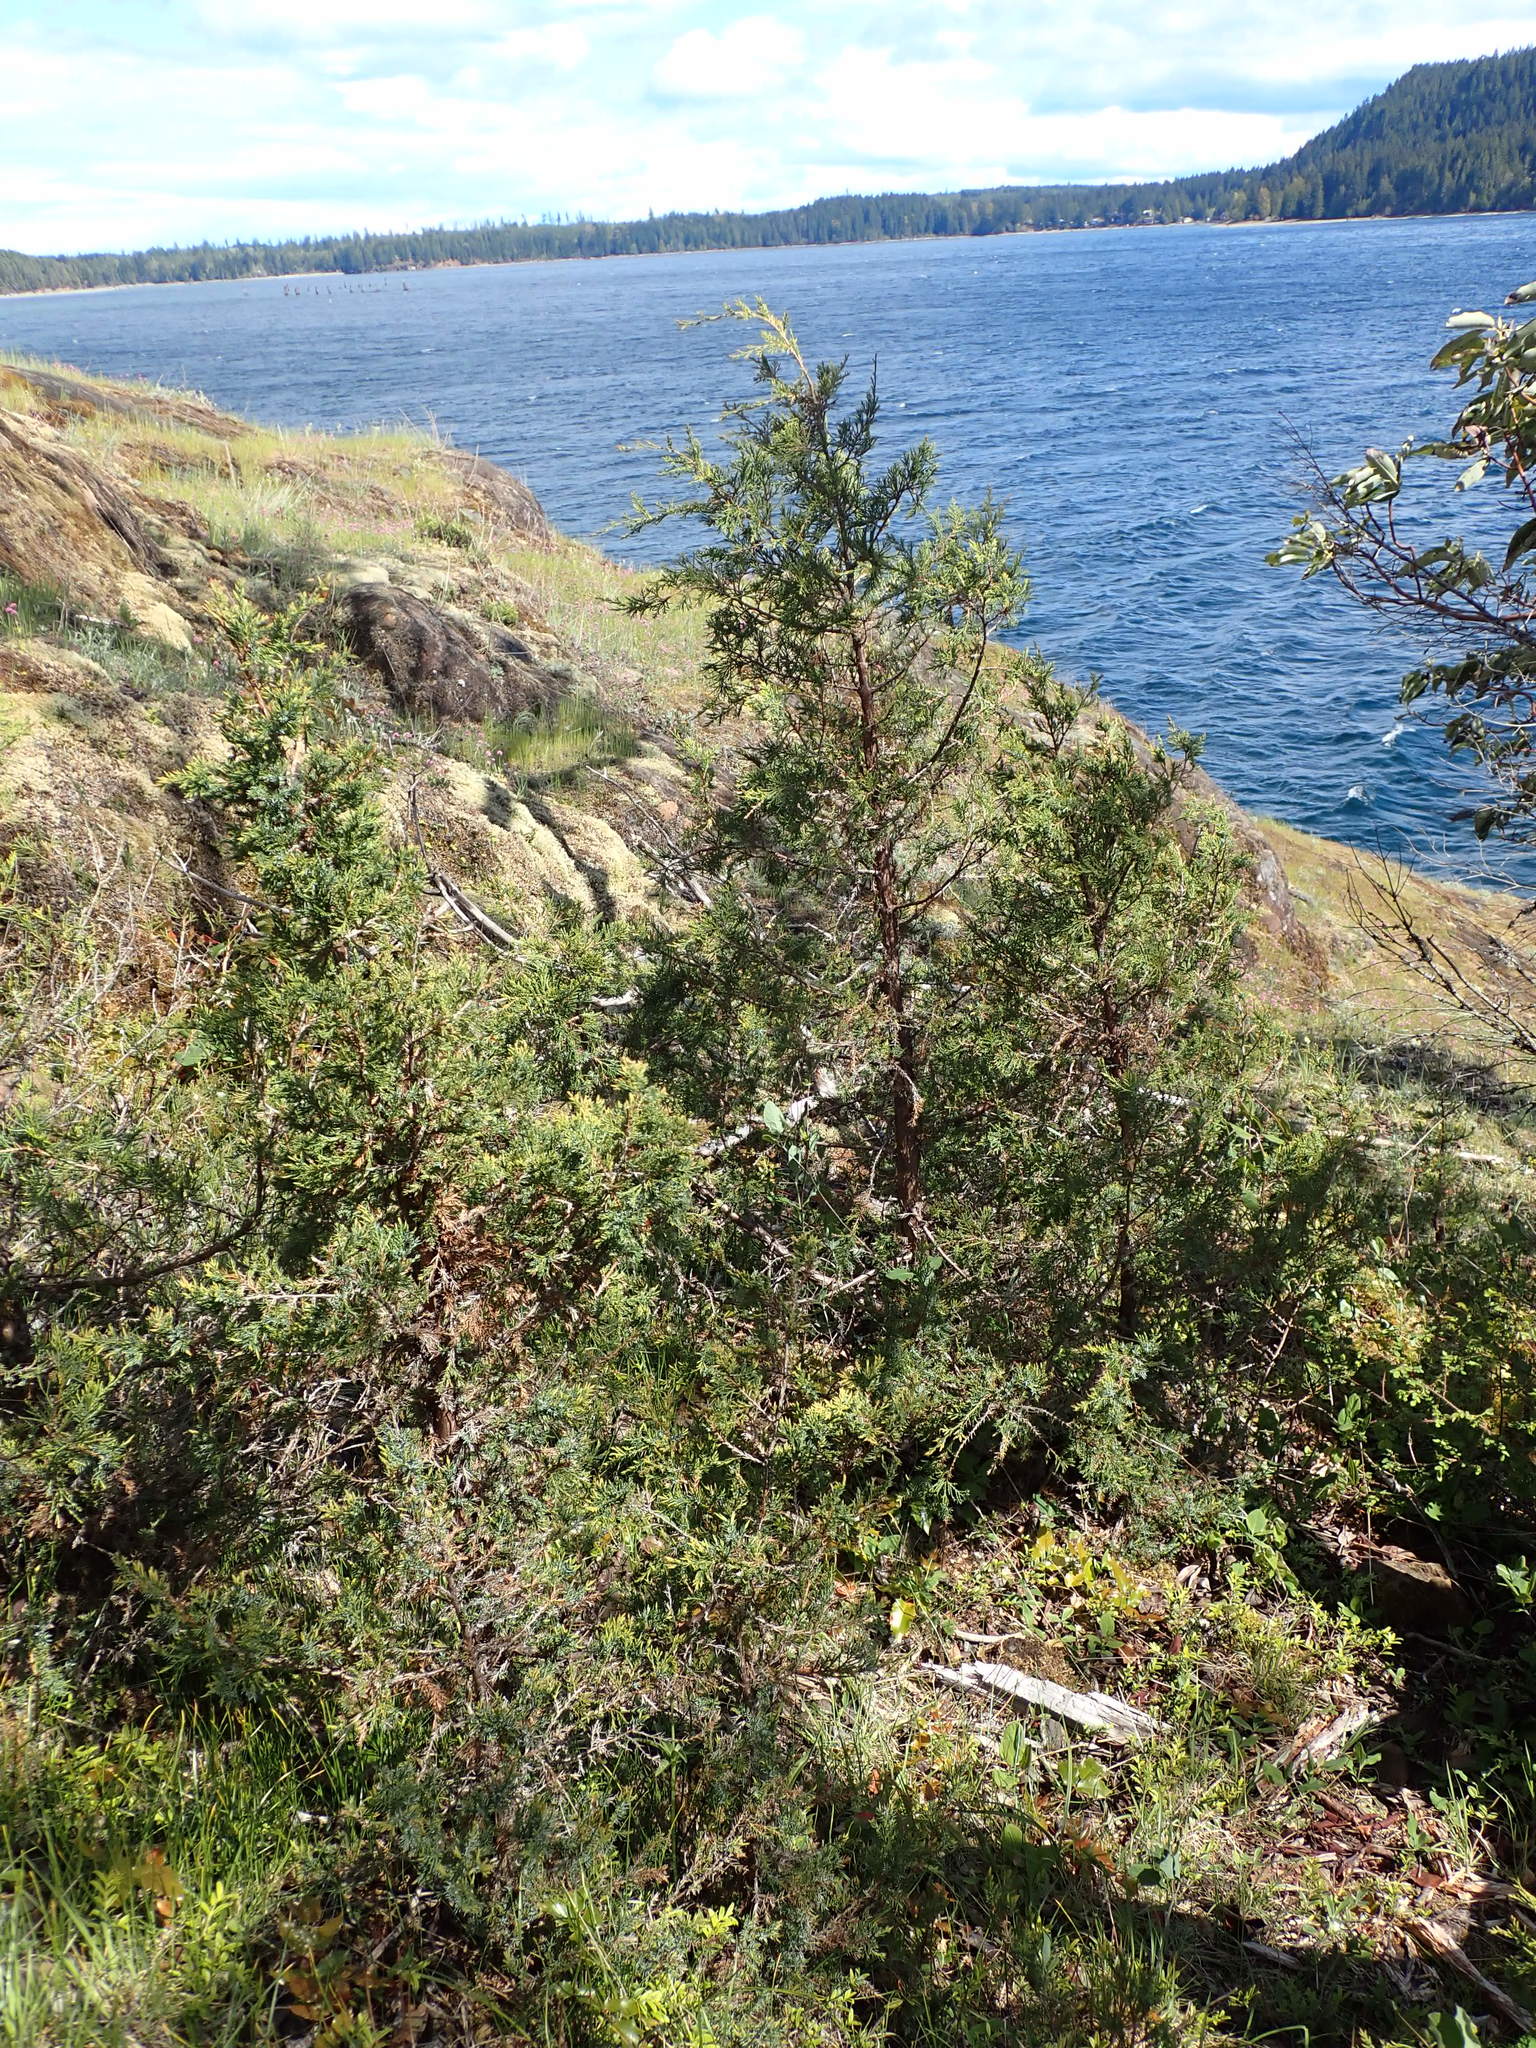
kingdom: Plantae
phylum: Tracheophyta
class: Pinopsida
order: Pinales
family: Cupressaceae
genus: Juniperus
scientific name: Juniperus scopulorum
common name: Rocky mountain juniper
